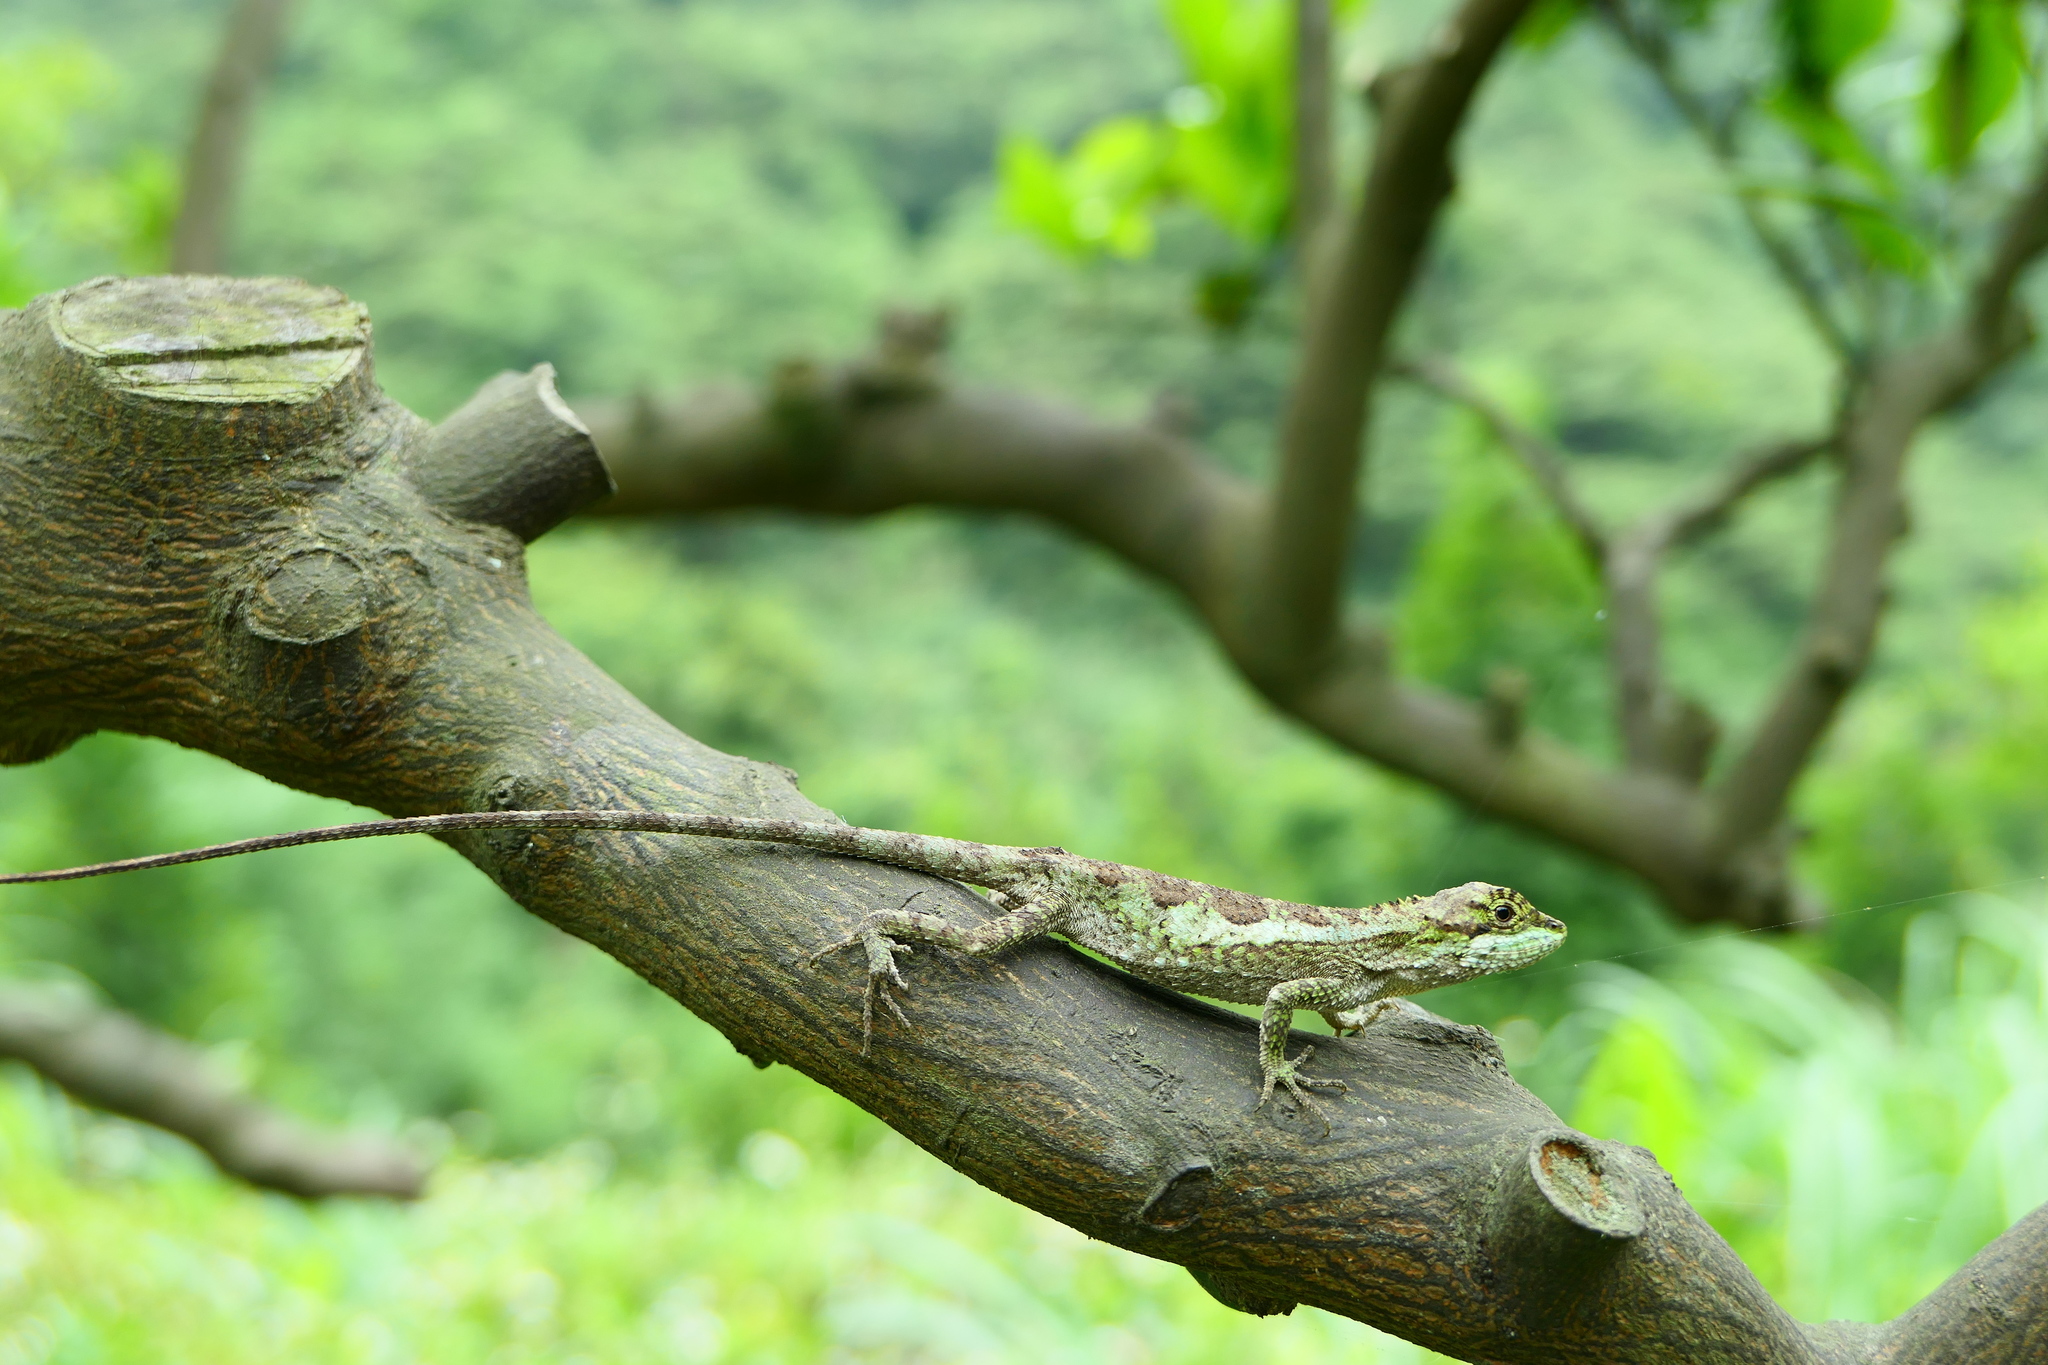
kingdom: Fungi
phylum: Basidiomycota
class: Agaricomycetes
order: Boletales
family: Diplocystidiaceae
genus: Diploderma
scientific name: Diploderma polygonatum
